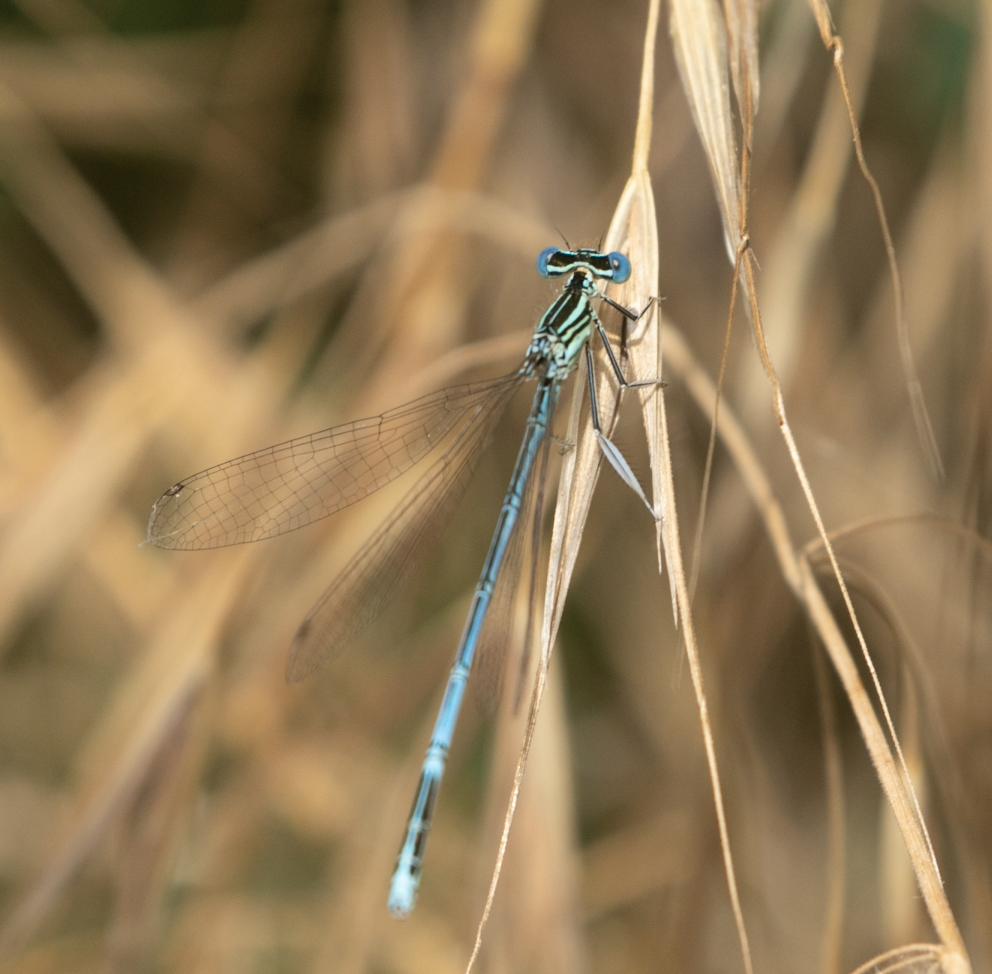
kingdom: Animalia
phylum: Arthropoda
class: Insecta
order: Odonata
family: Platycnemididae
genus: Platycnemis
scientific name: Platycnemis pennipes
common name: White-legged damselfly
